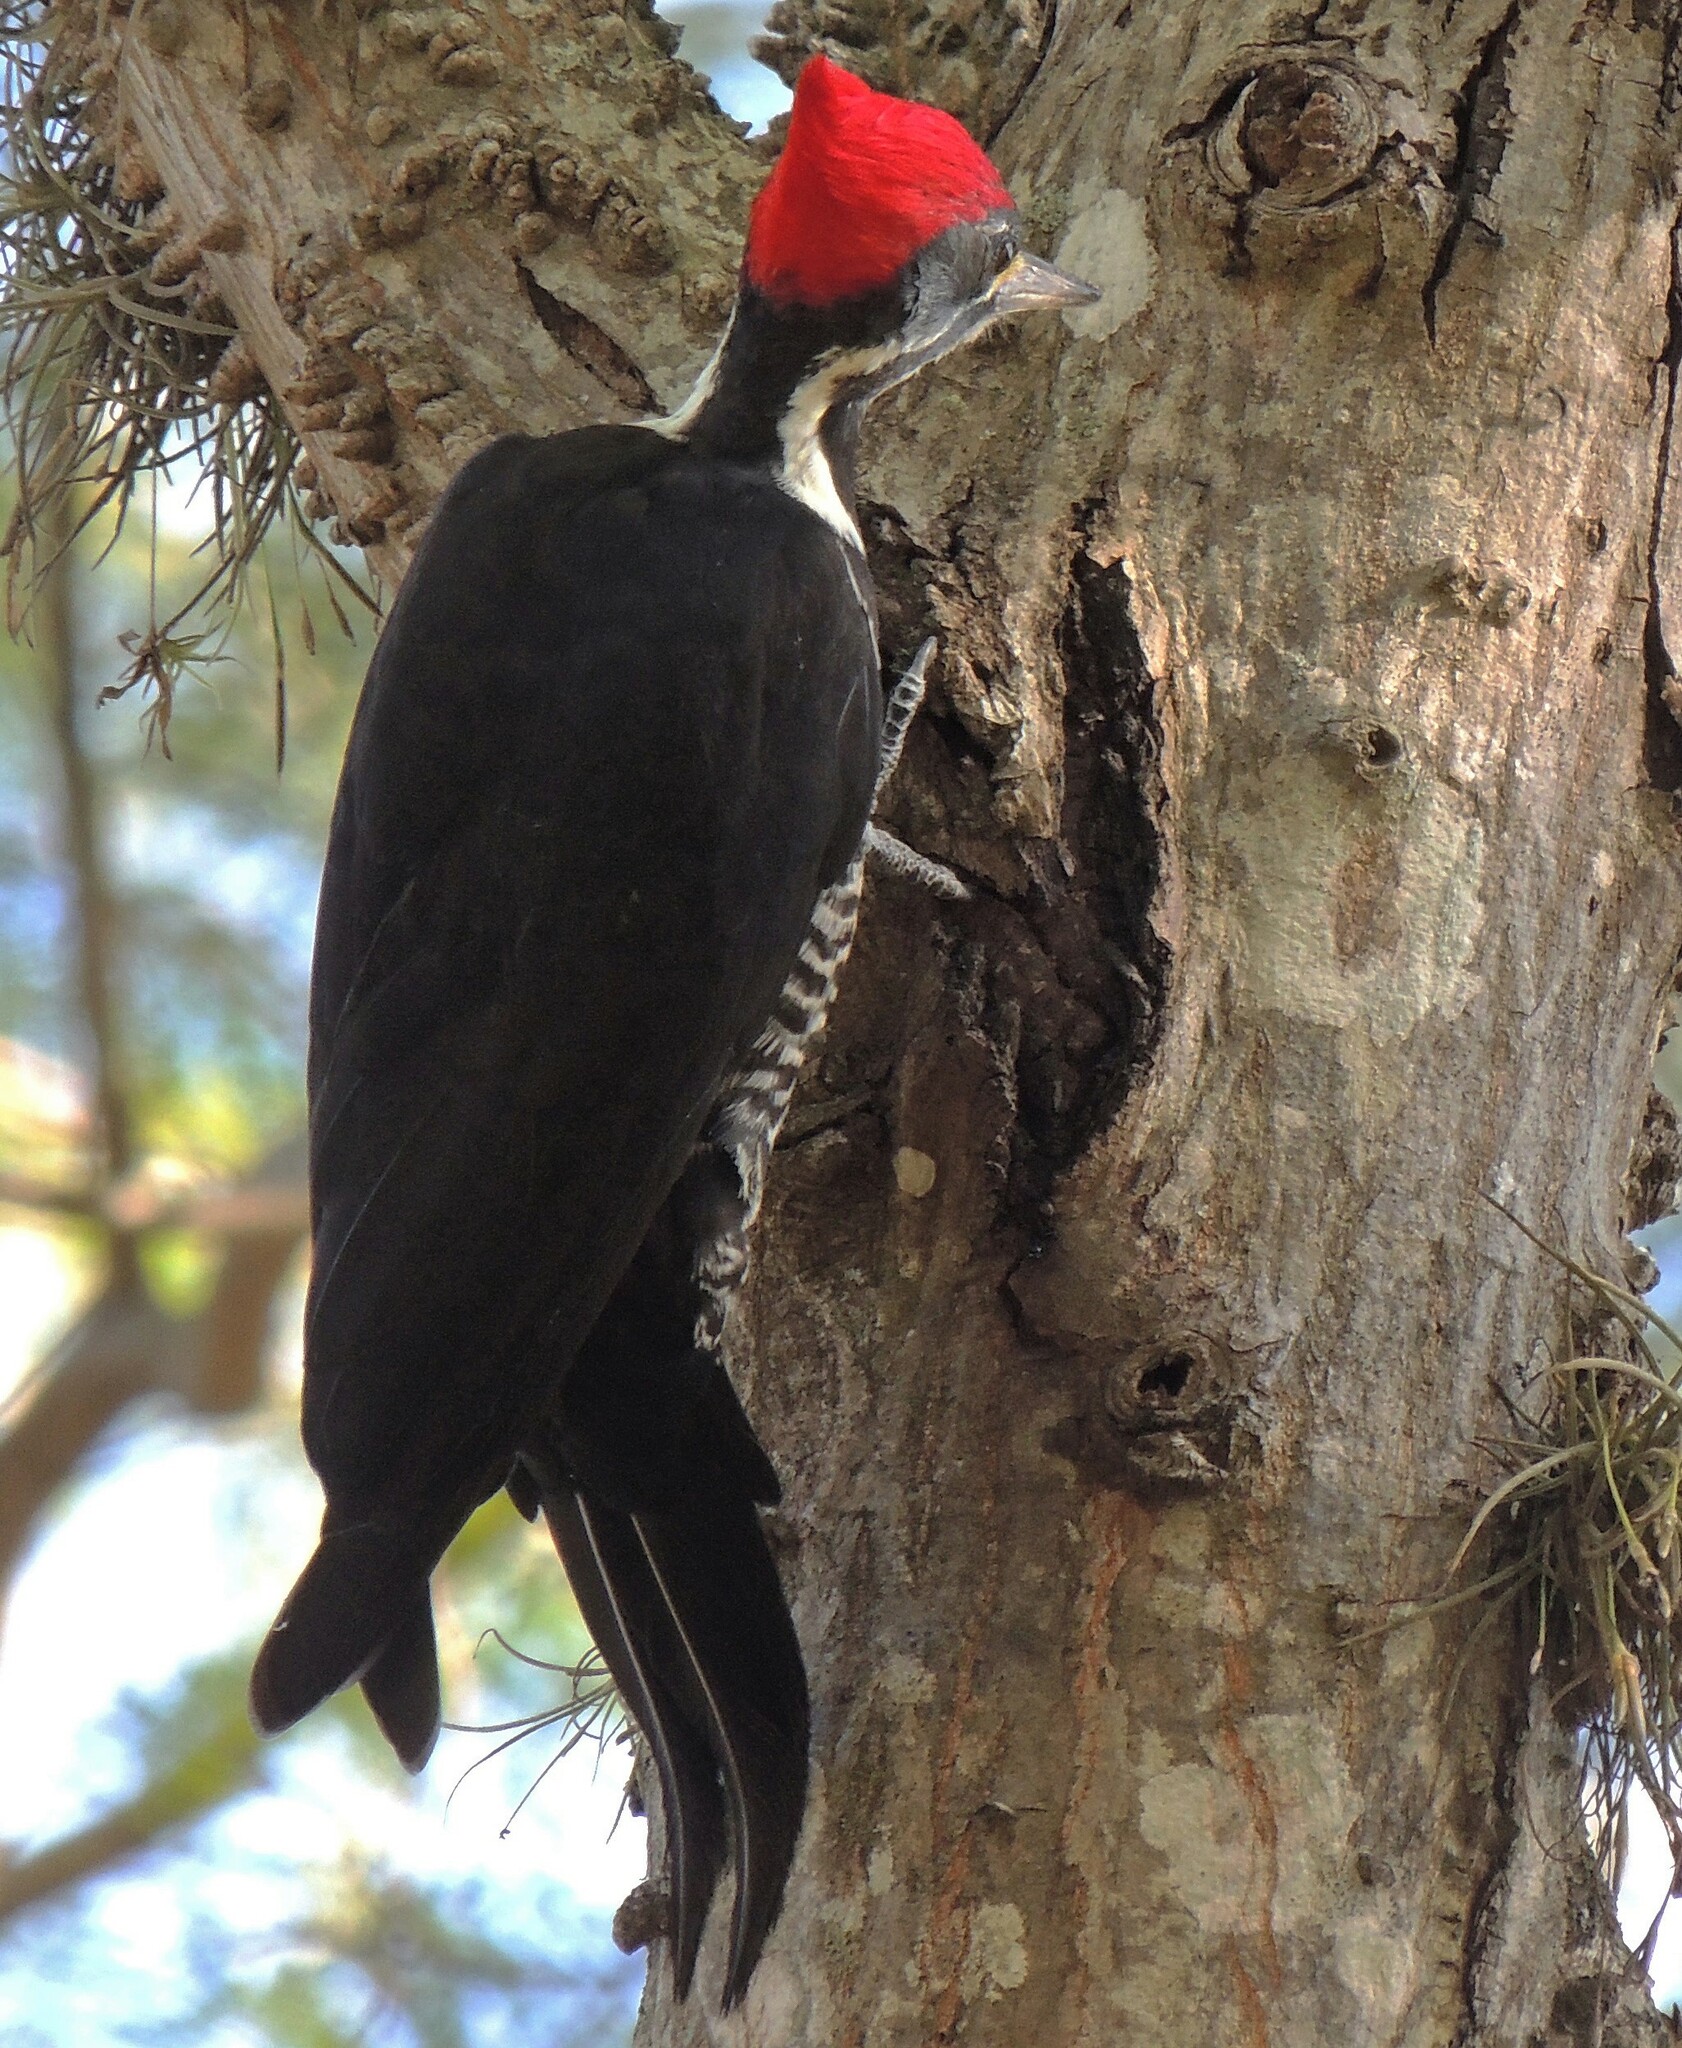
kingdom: Animalia
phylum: Chordata
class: Aves
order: Piciformes
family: Picidae
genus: Dryocopus
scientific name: Dryocopus lineatus
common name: Lineated woodpecker
